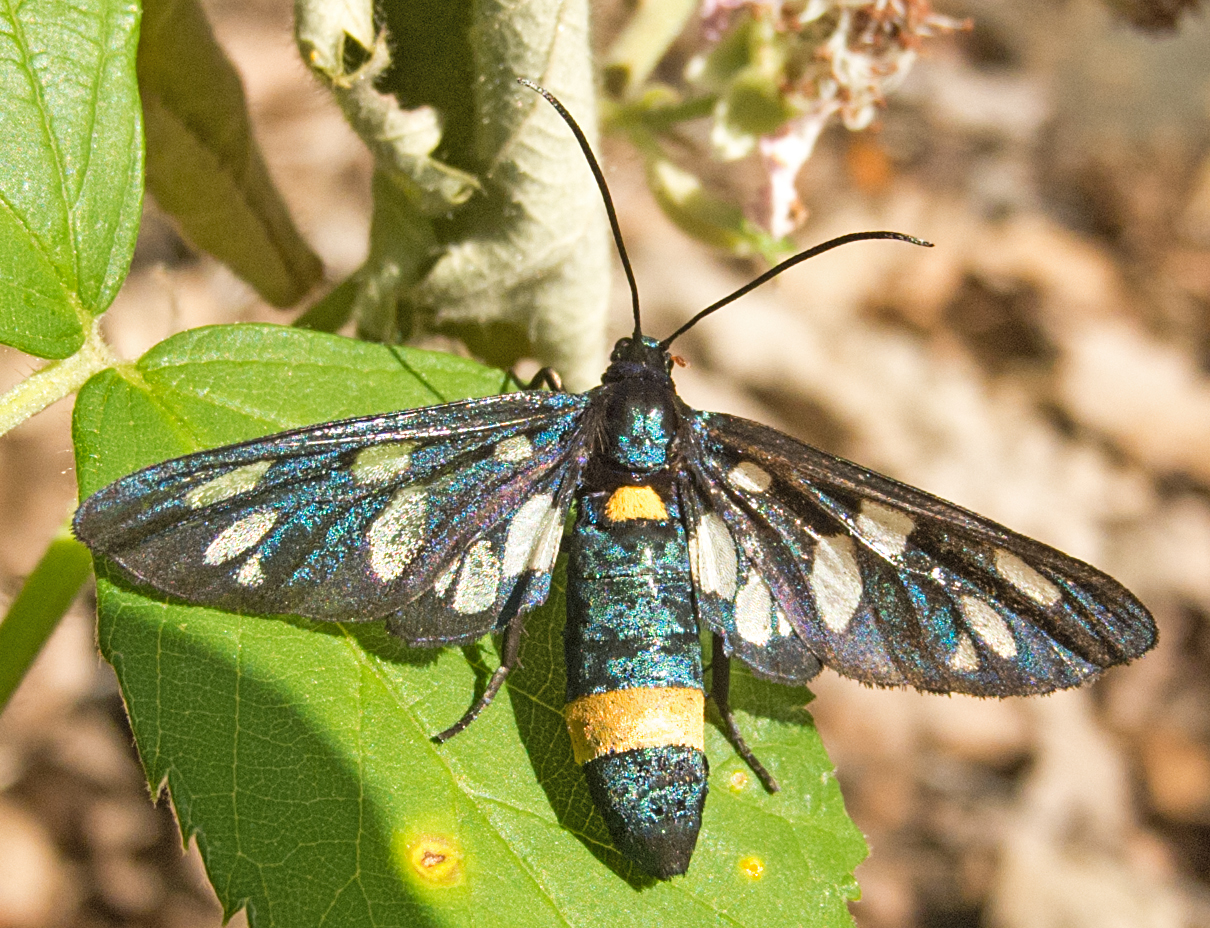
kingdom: Animalia
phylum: Arthropoda
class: Insecta
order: Lepidoptera
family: Erebidae
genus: Amata
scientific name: Amata phegea
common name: Nine-spotted
